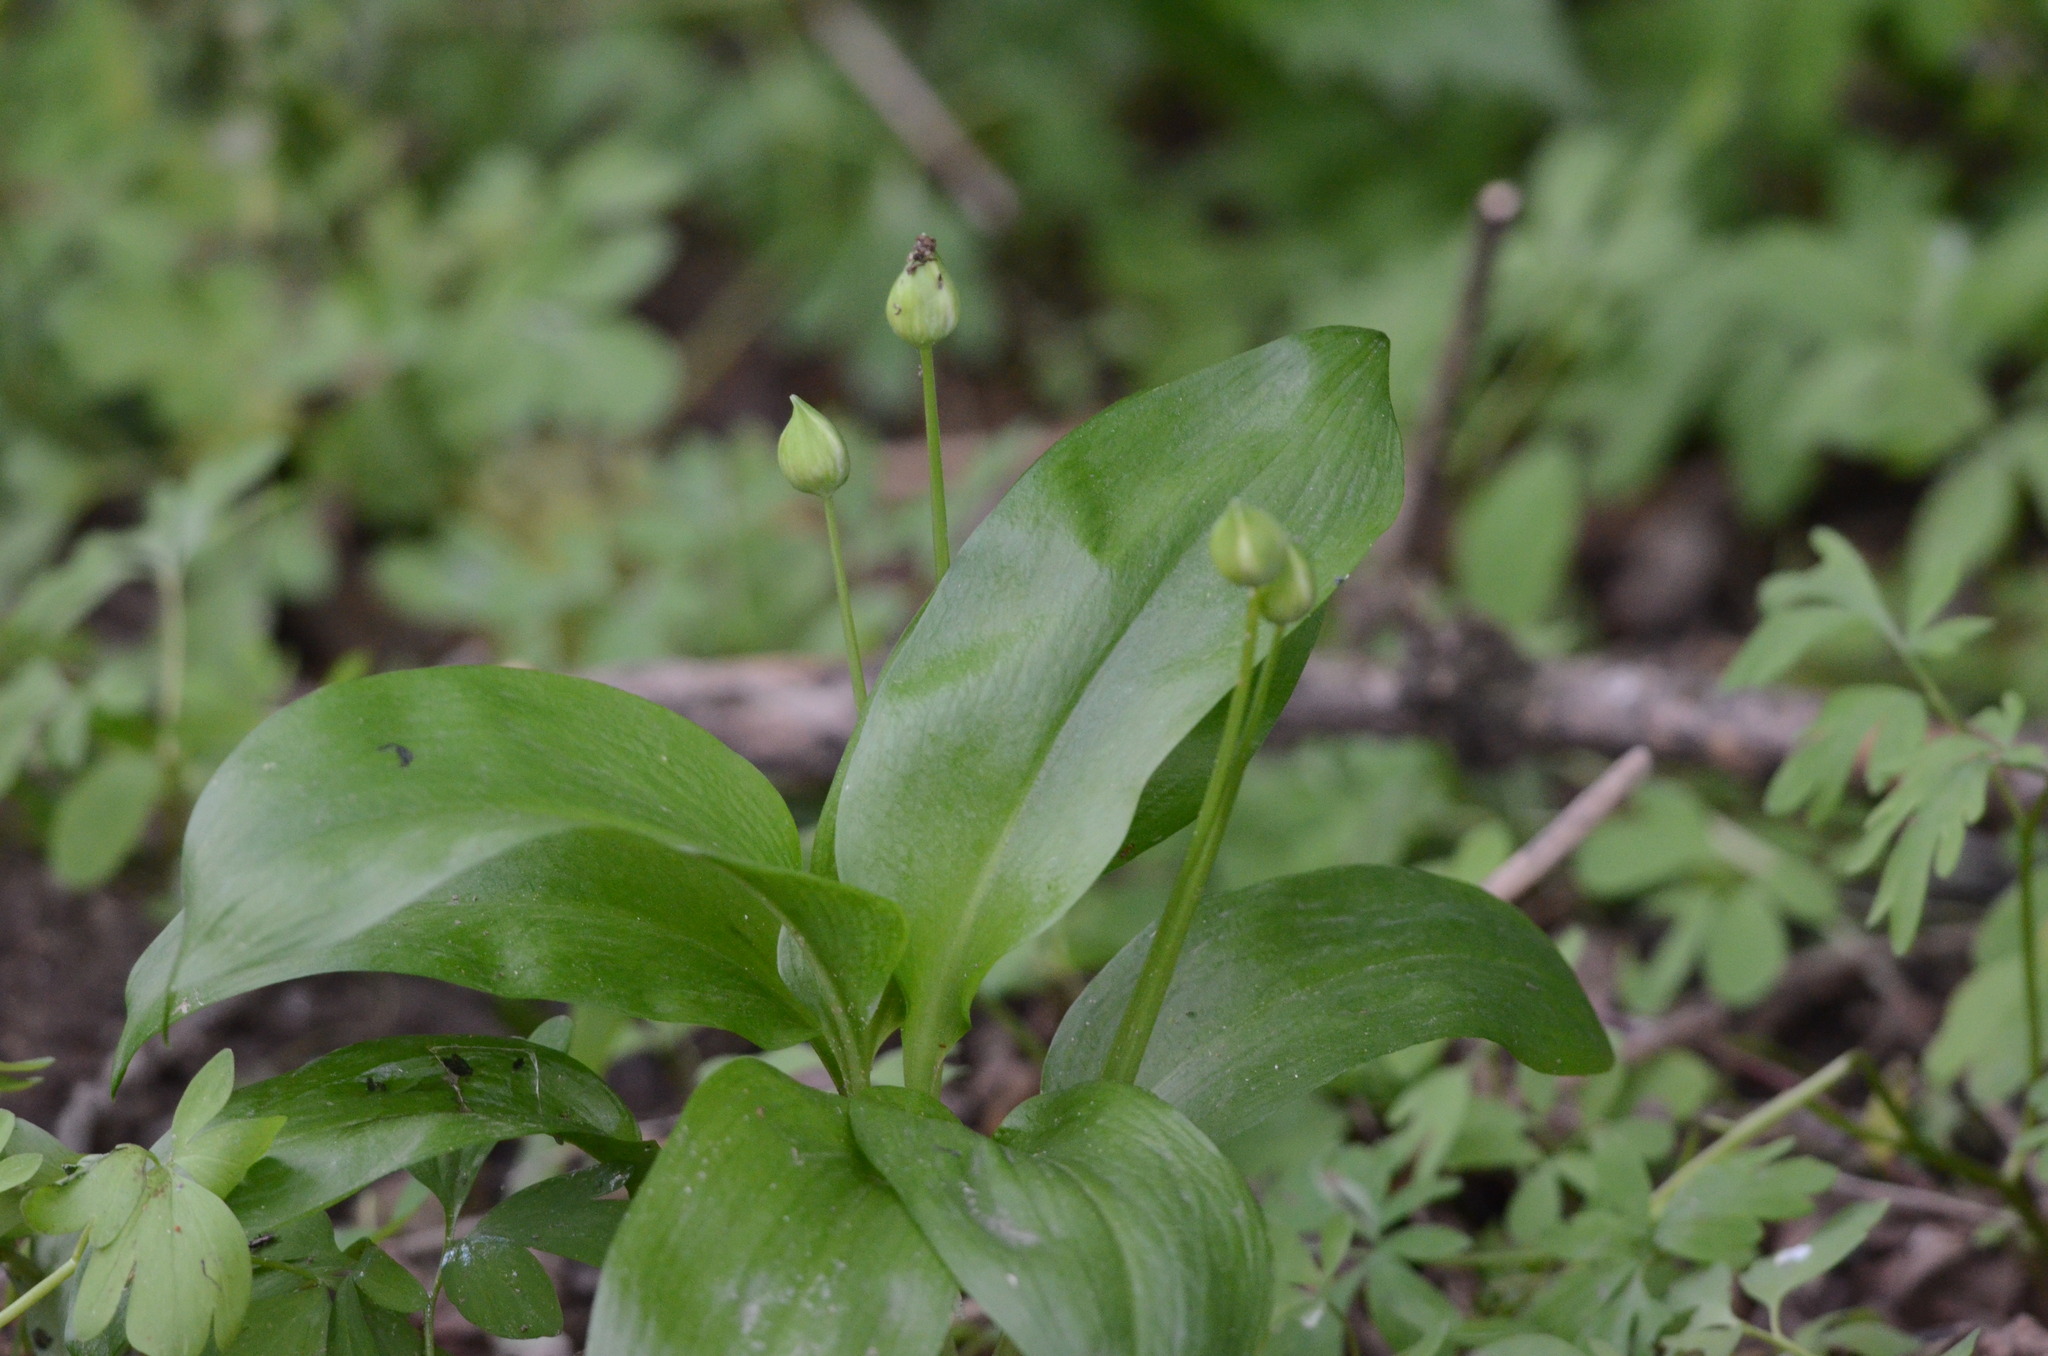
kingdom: Plantae
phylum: Tracheophyta
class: Liliopsida
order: Asparagales
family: Amaryllidaceae
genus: Allium
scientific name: Allium ursinum
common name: Ramsons
